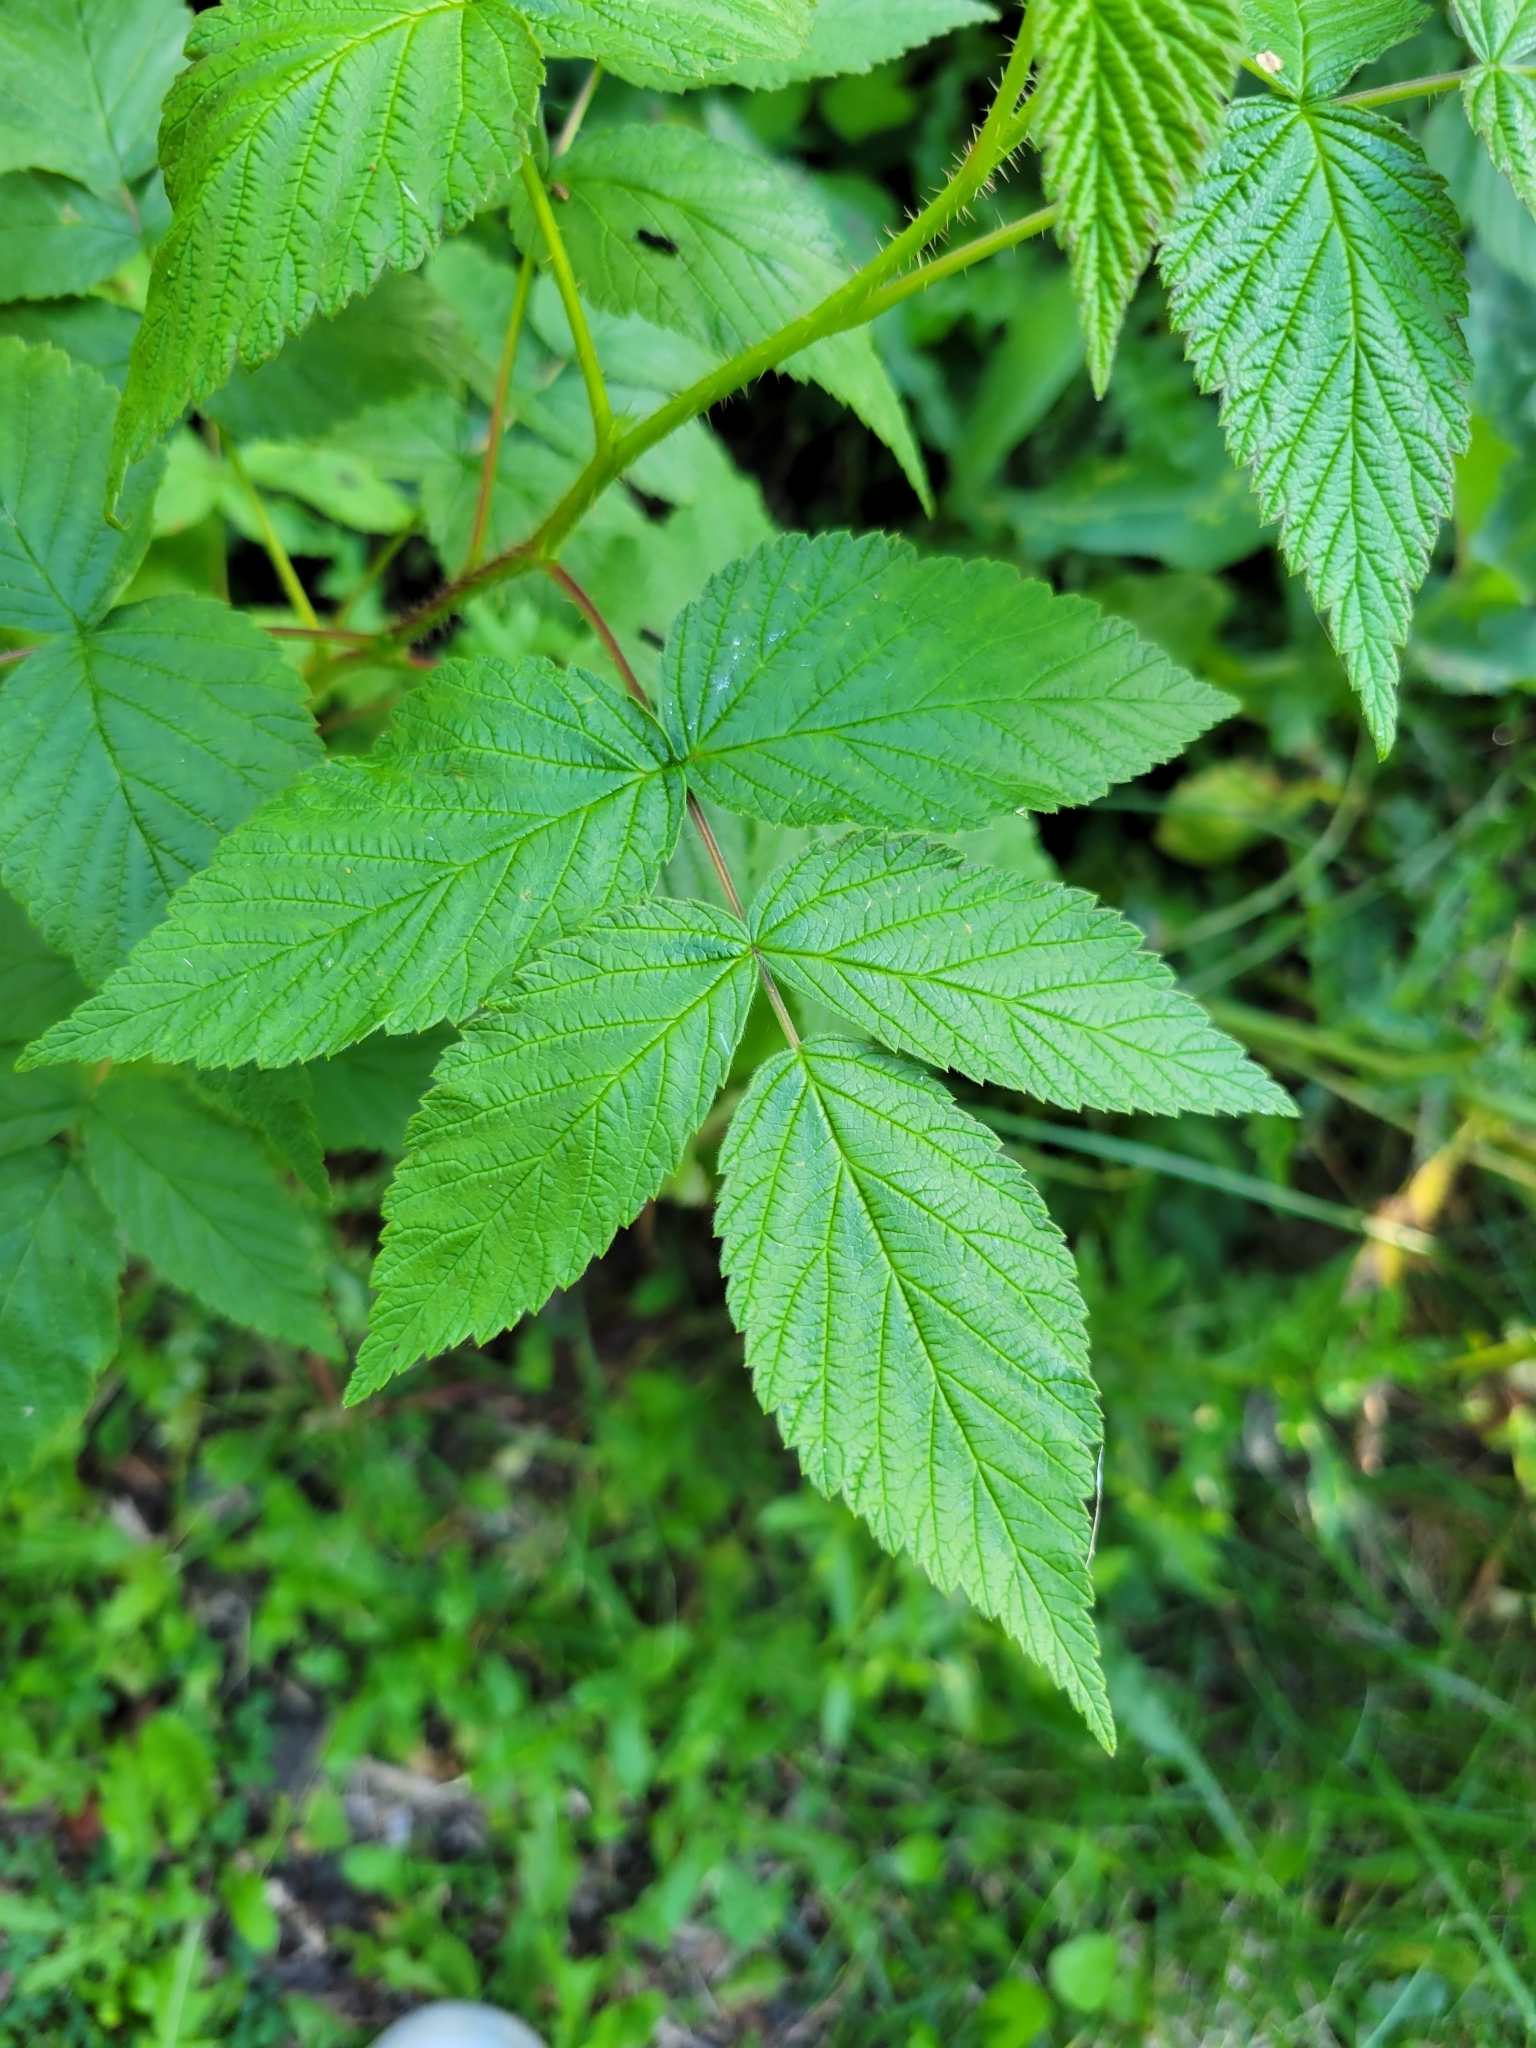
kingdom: Plantae
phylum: Tracheophyta
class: Magnoliopsida
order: Rosales
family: Rosaceae
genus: Rubus
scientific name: Rubus idaeus
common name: Raspberry
